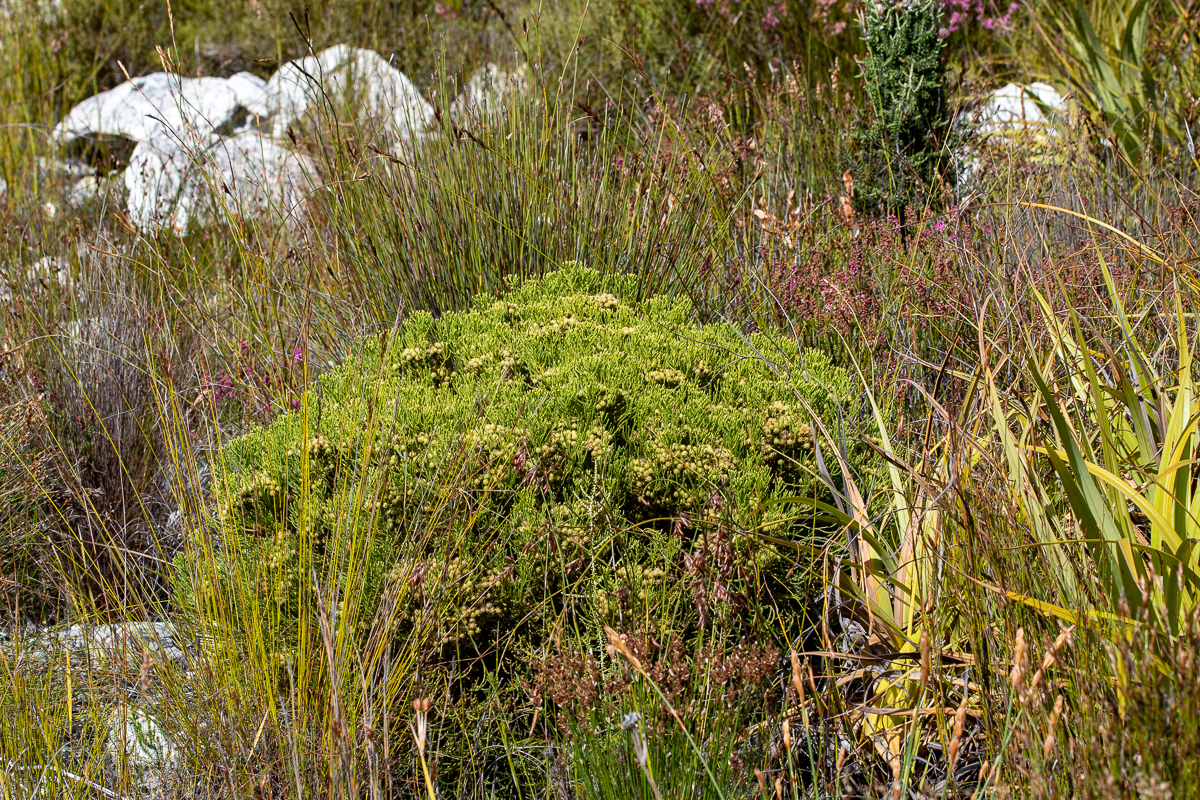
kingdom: Plantae
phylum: Tracheophyta
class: Magnoliopsida
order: Bruniales
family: Bruniaceae
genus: Brunia
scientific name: Brunia paleacea
